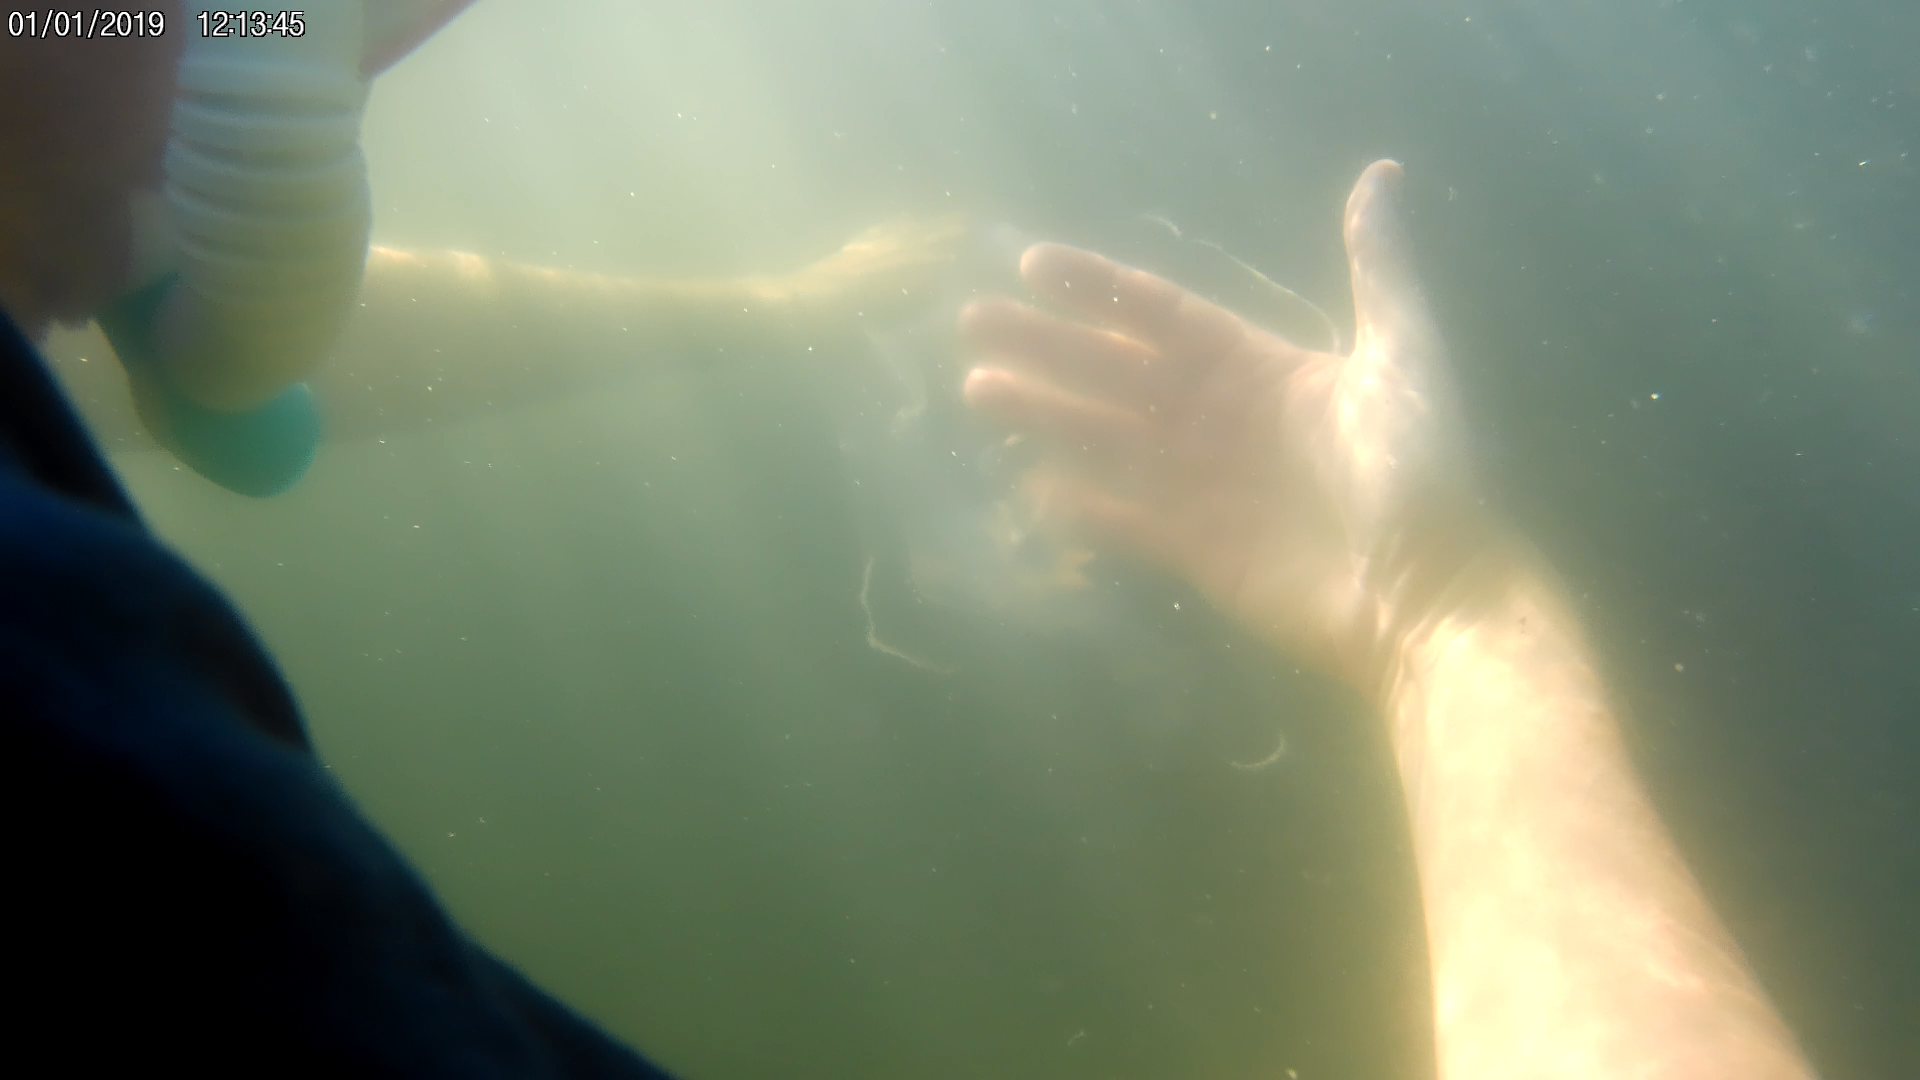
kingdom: Animalia
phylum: Cnidaria
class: Scyphozoa
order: Semaeostomeae
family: Ulmaridae
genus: Aurelia
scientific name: Aurelia marginalis
